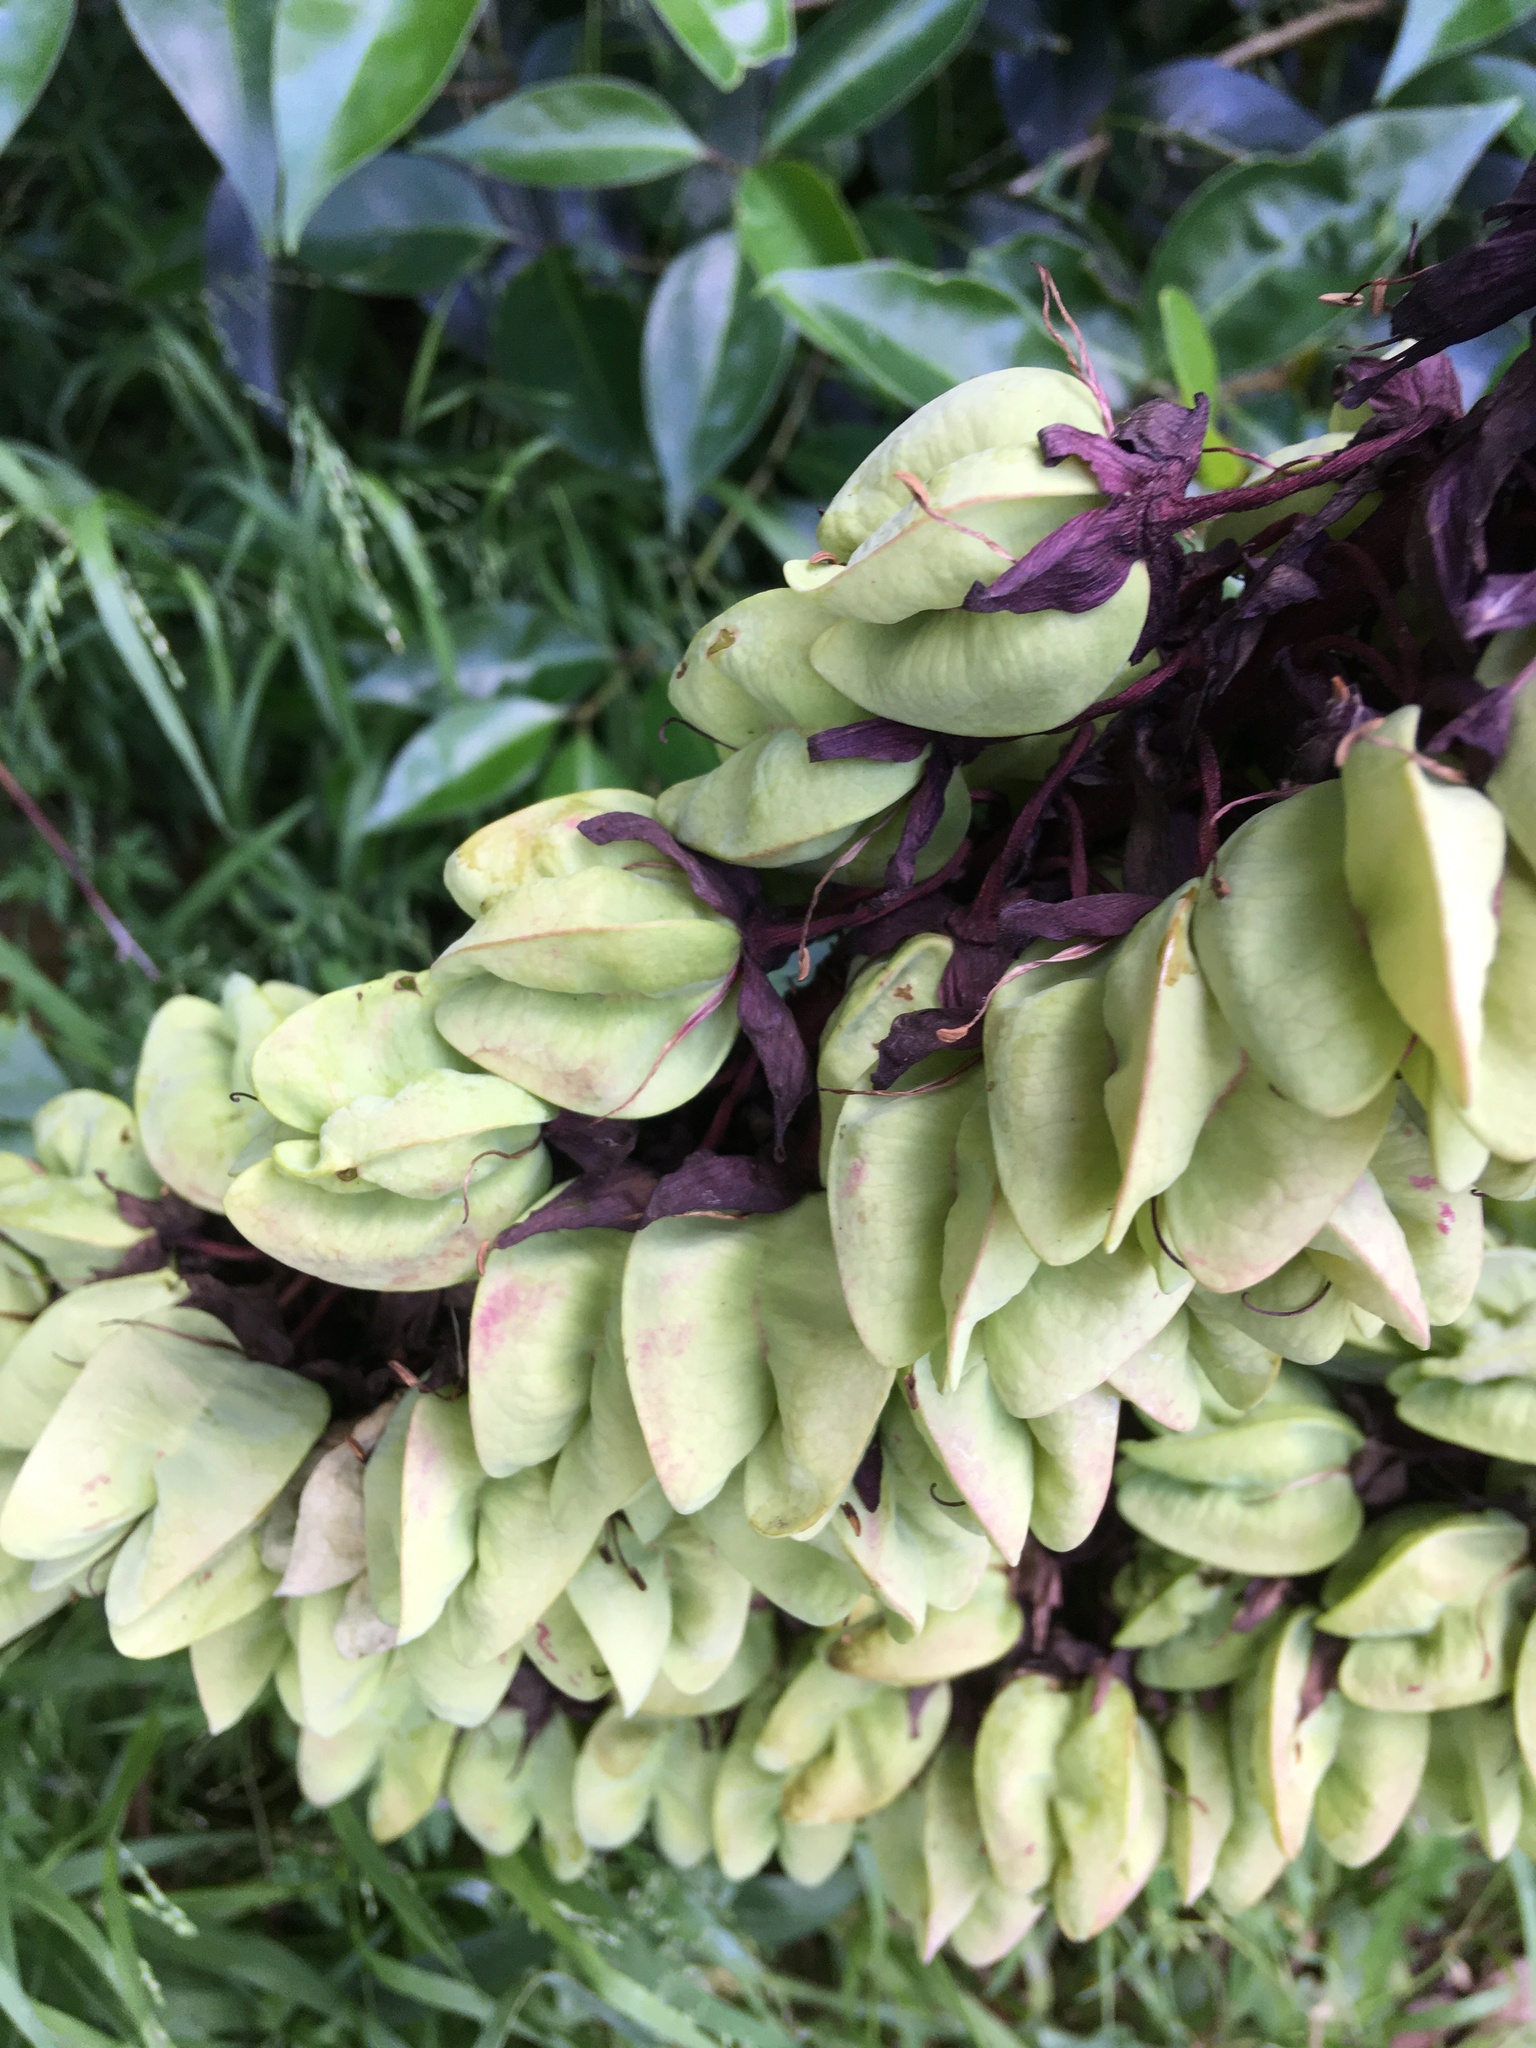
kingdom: Plantae
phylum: Tracheophyta
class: Magnoliopsida
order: Geraniales
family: Melianthaceae
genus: Melianthus
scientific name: Melianthus major
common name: Honey-flower
